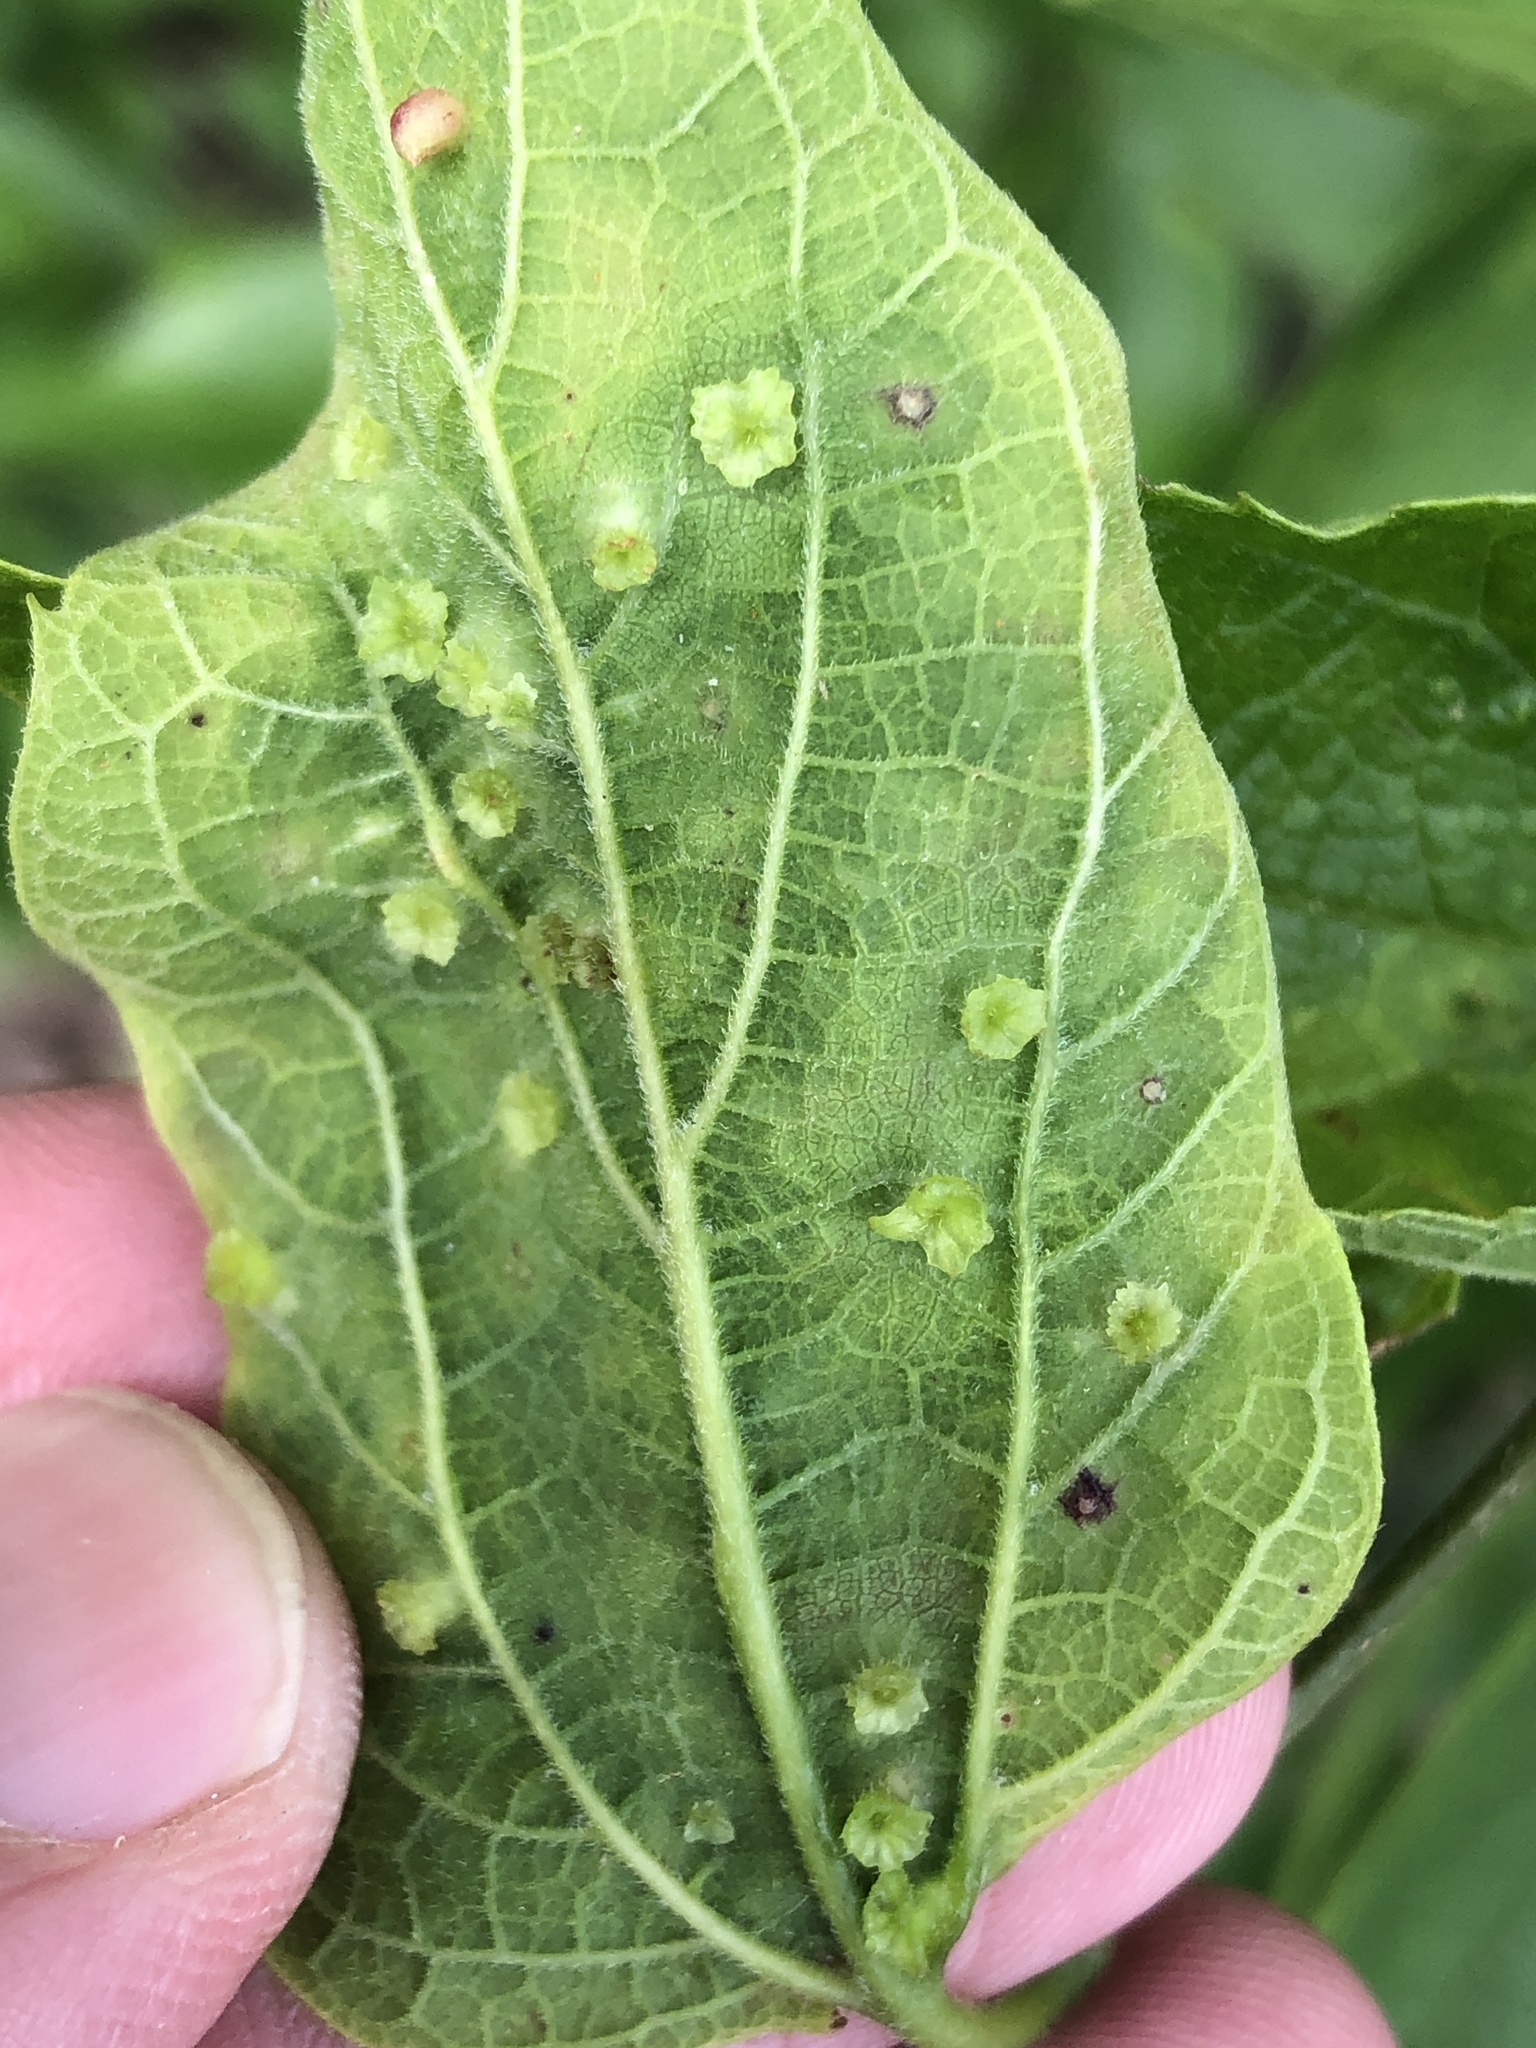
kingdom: Animalia
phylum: Arthropoda
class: Insecta
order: Hemiptera
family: Aphalaridae
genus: Pachypsylla
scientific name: Pachypsylla celtidisasterisca
